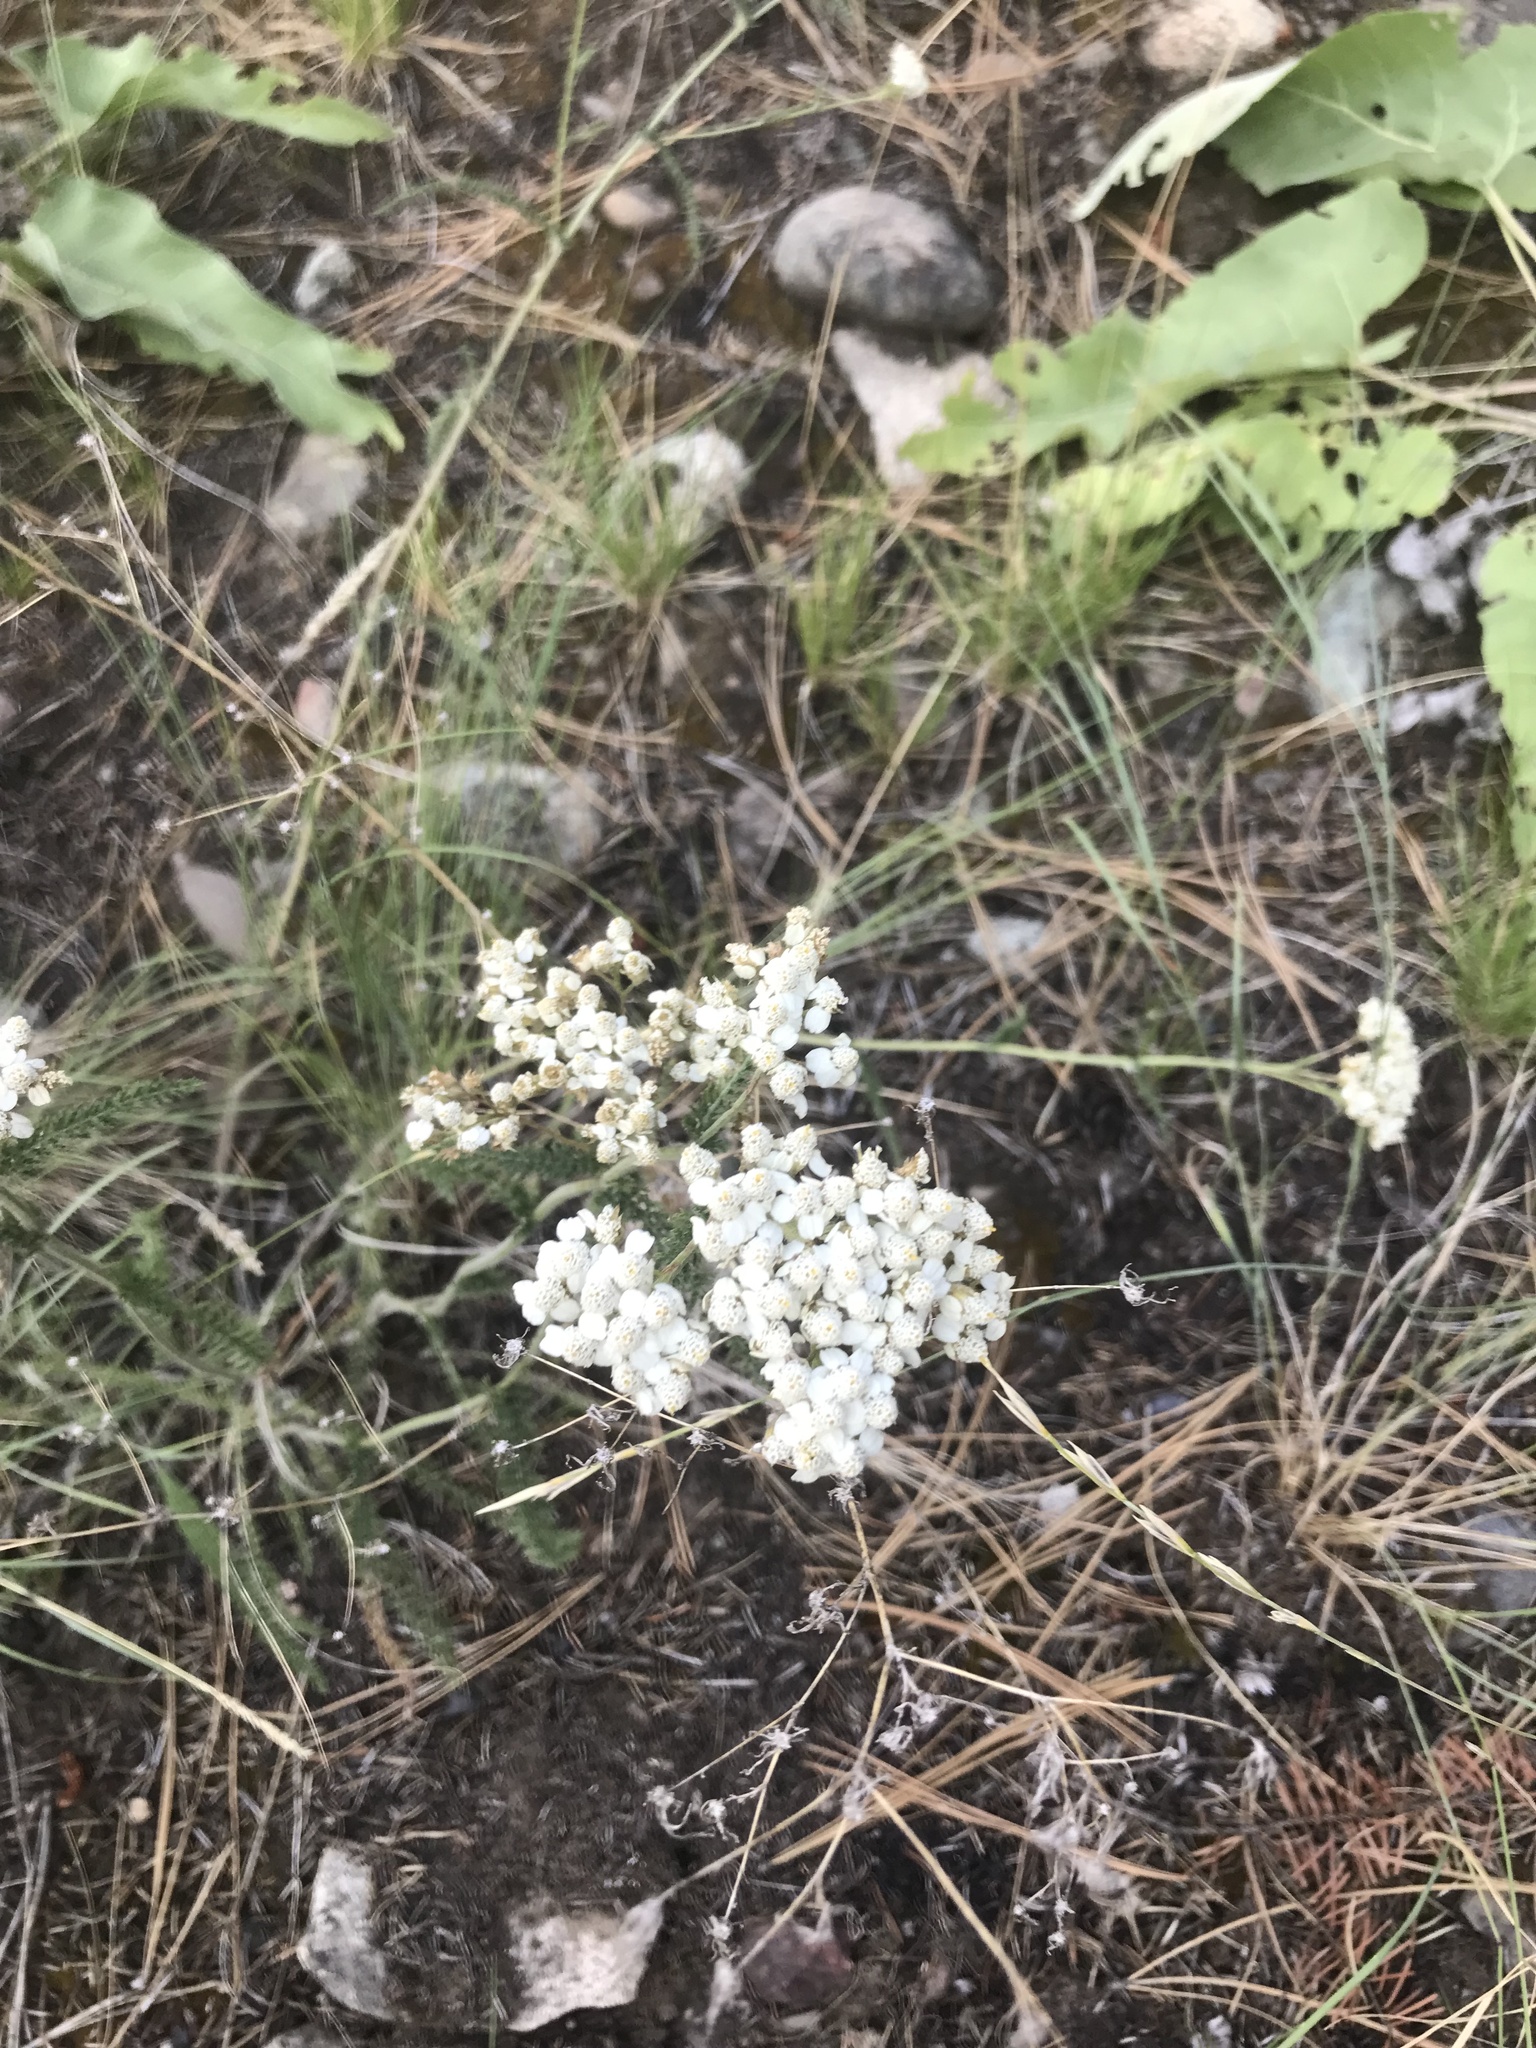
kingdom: Plantae
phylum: Tracheophyta
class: Magnoliopsida
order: Asterales
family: Asteraceae
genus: Achillea
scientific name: Achillea millefolium
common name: Yarrow
